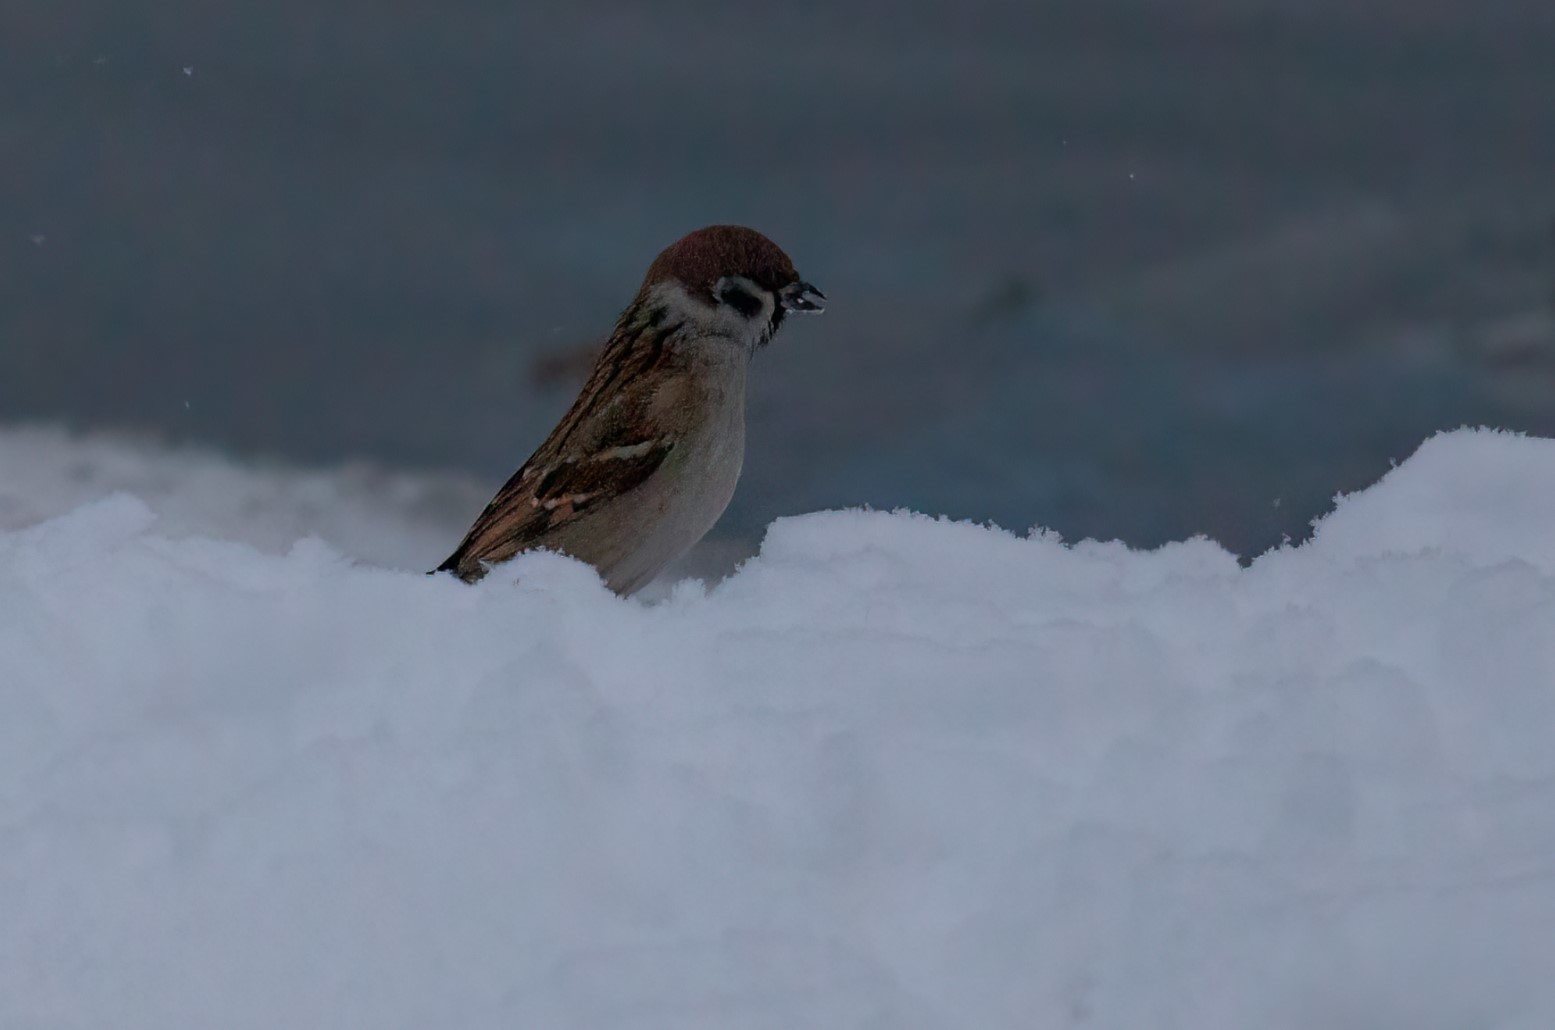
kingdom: Animalia
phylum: Chordata
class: Aves
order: Passeriformes
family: Passeridae
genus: Passer
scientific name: Passer montanus
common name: Eurasian tree sparrow
